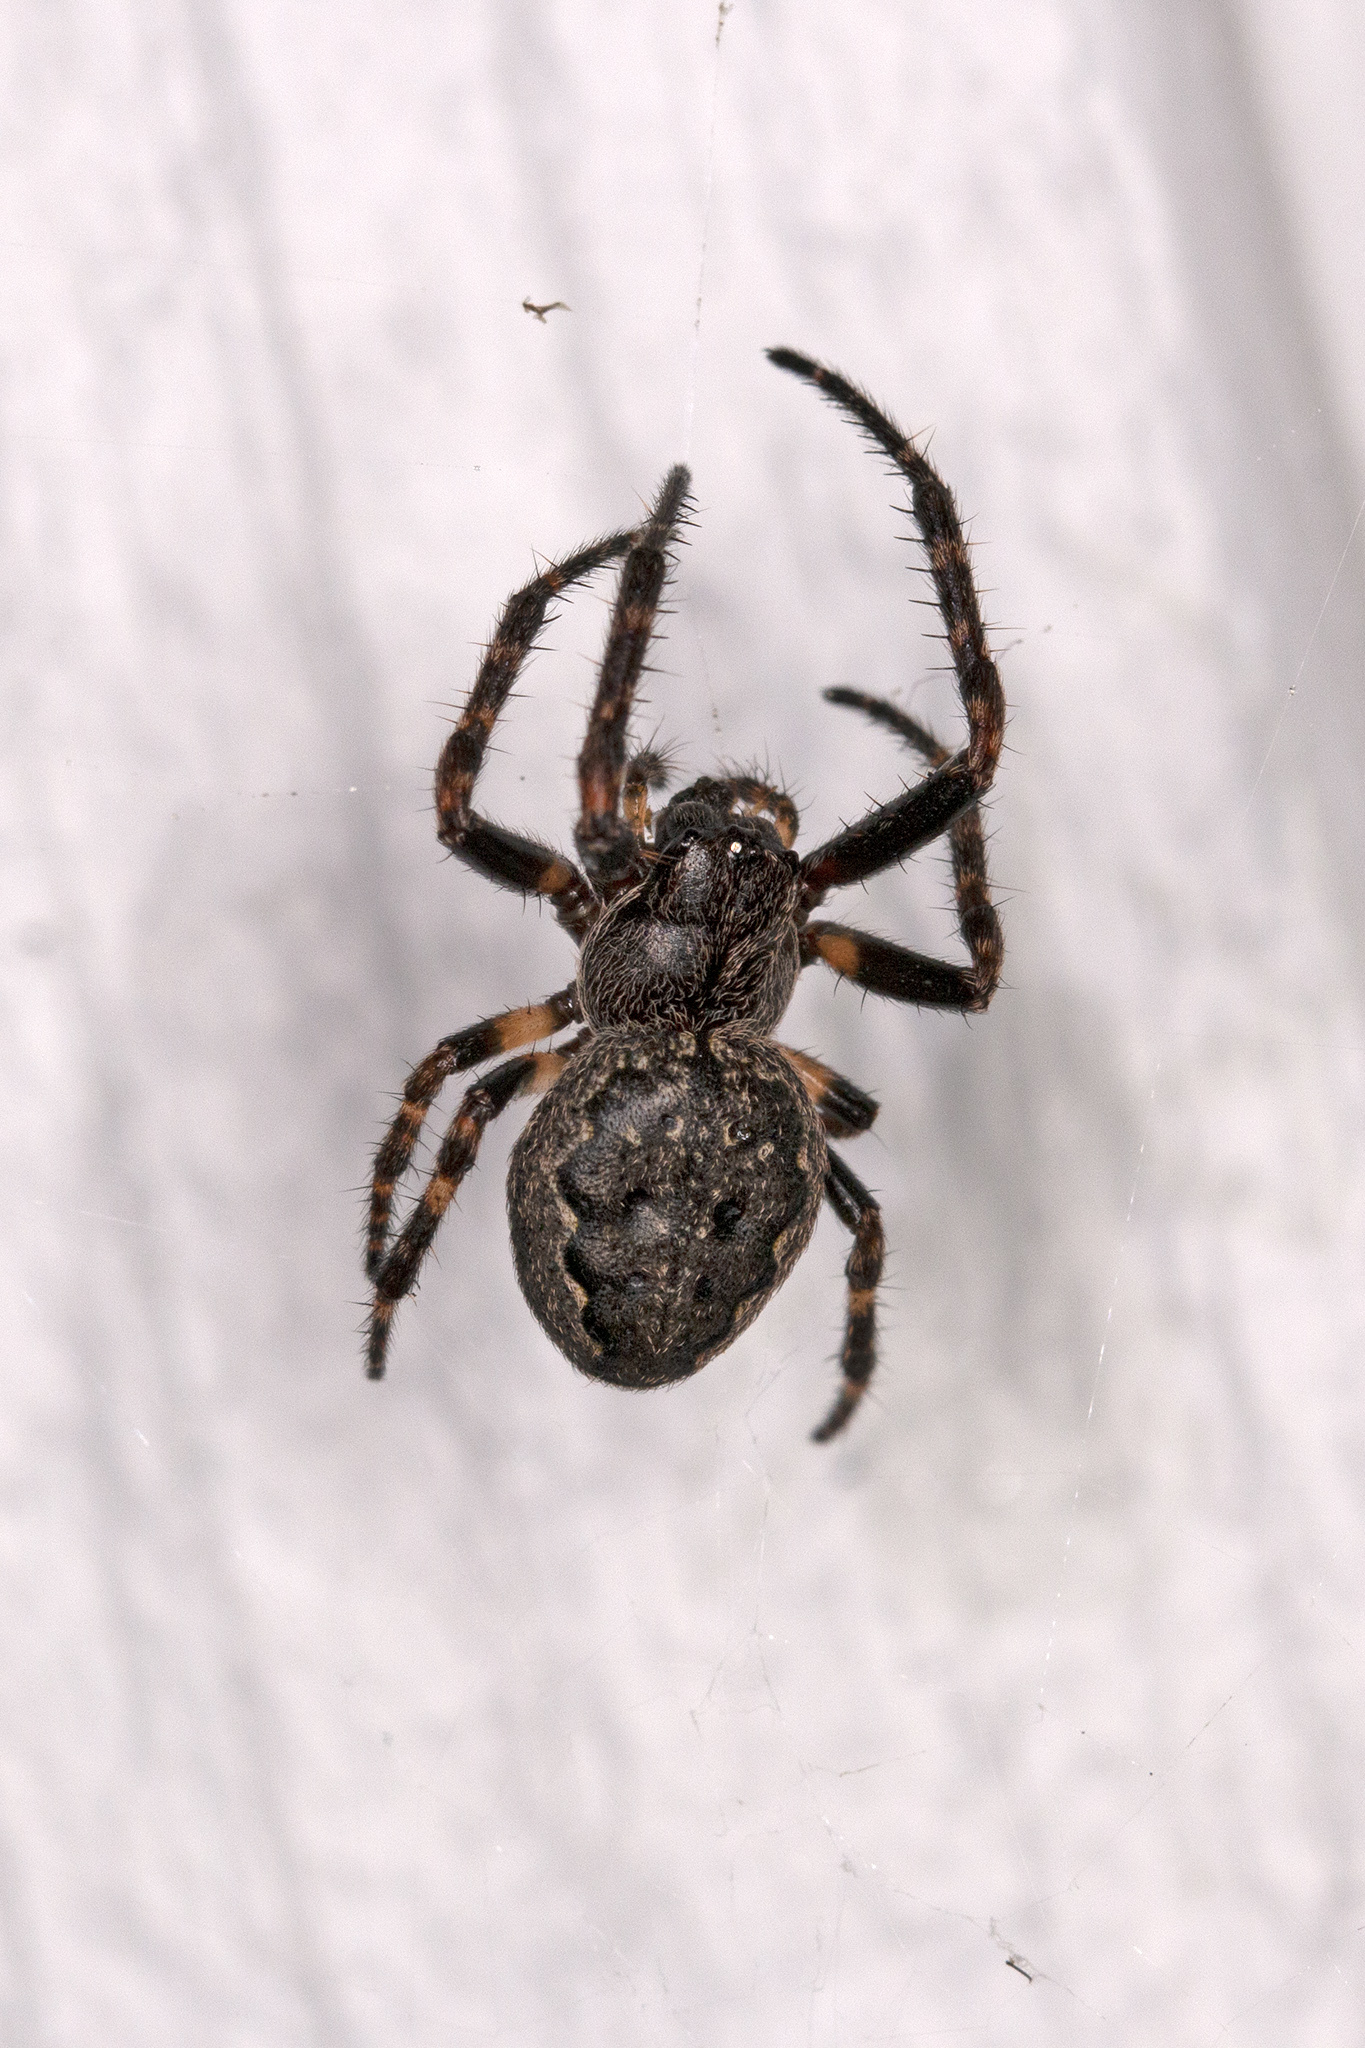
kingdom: Animalia
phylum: Arthropoda
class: Arachnida
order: Araneae
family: Araneidae
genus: Nuctenea
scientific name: Nuctenea umbratica
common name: Toad spider
